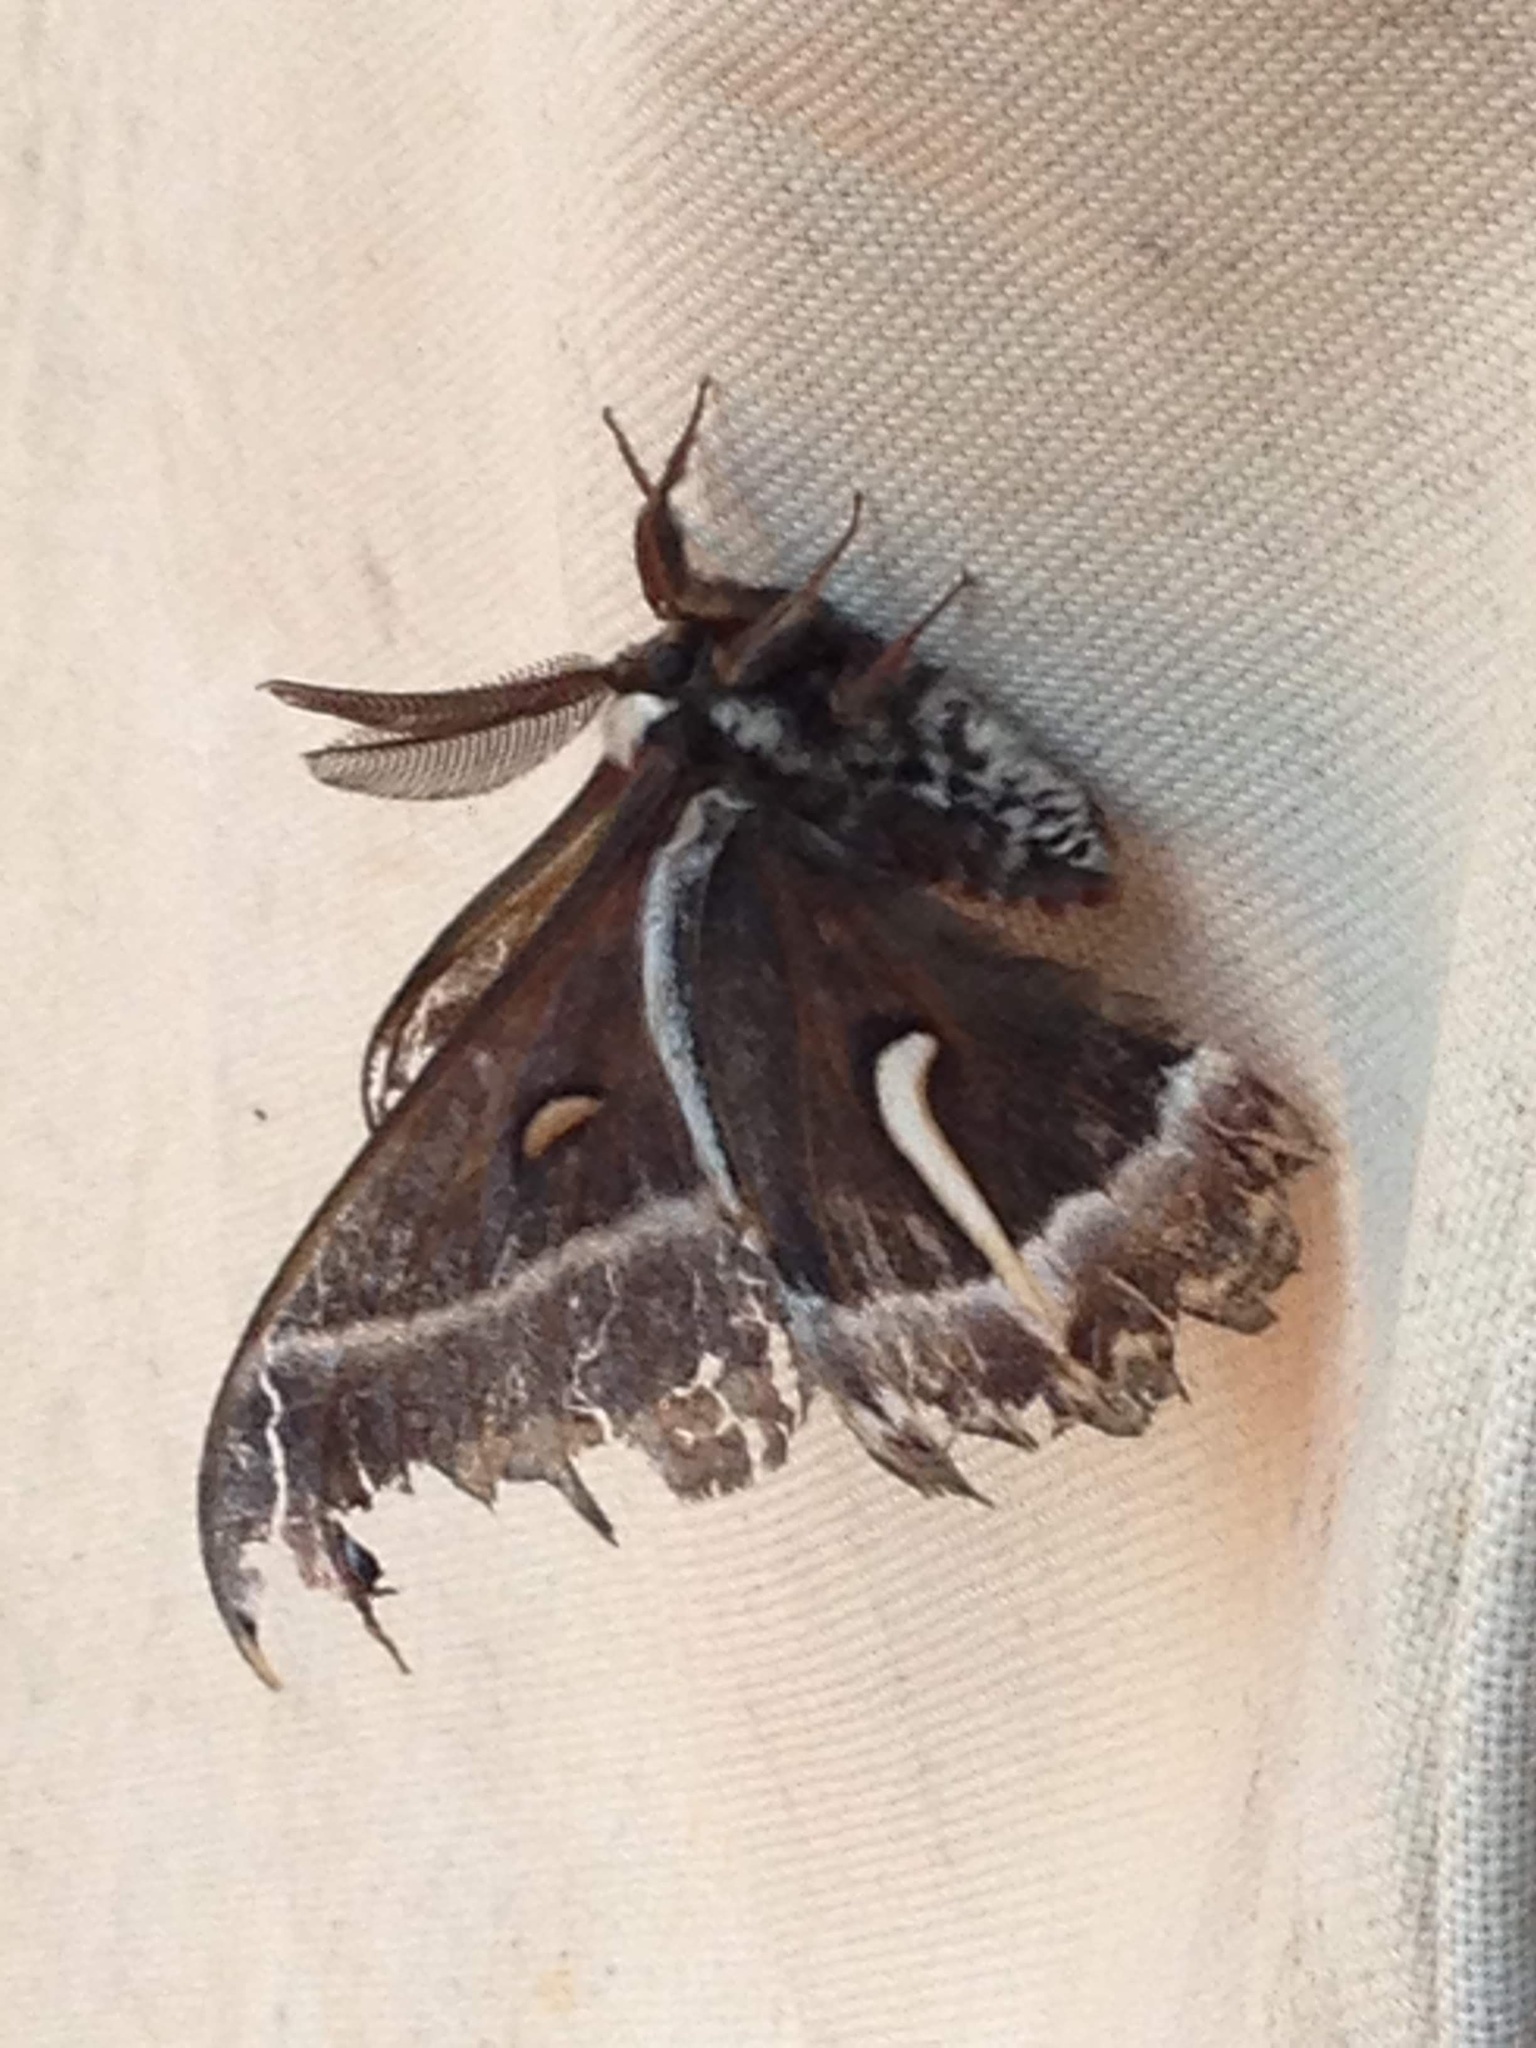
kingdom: Animalia
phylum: Arthropoda
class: Insecta
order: Lepidoptera
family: Saturniidae
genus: Hyalophora
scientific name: Hyalophora euryalus
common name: Ceanothus silkmoth
